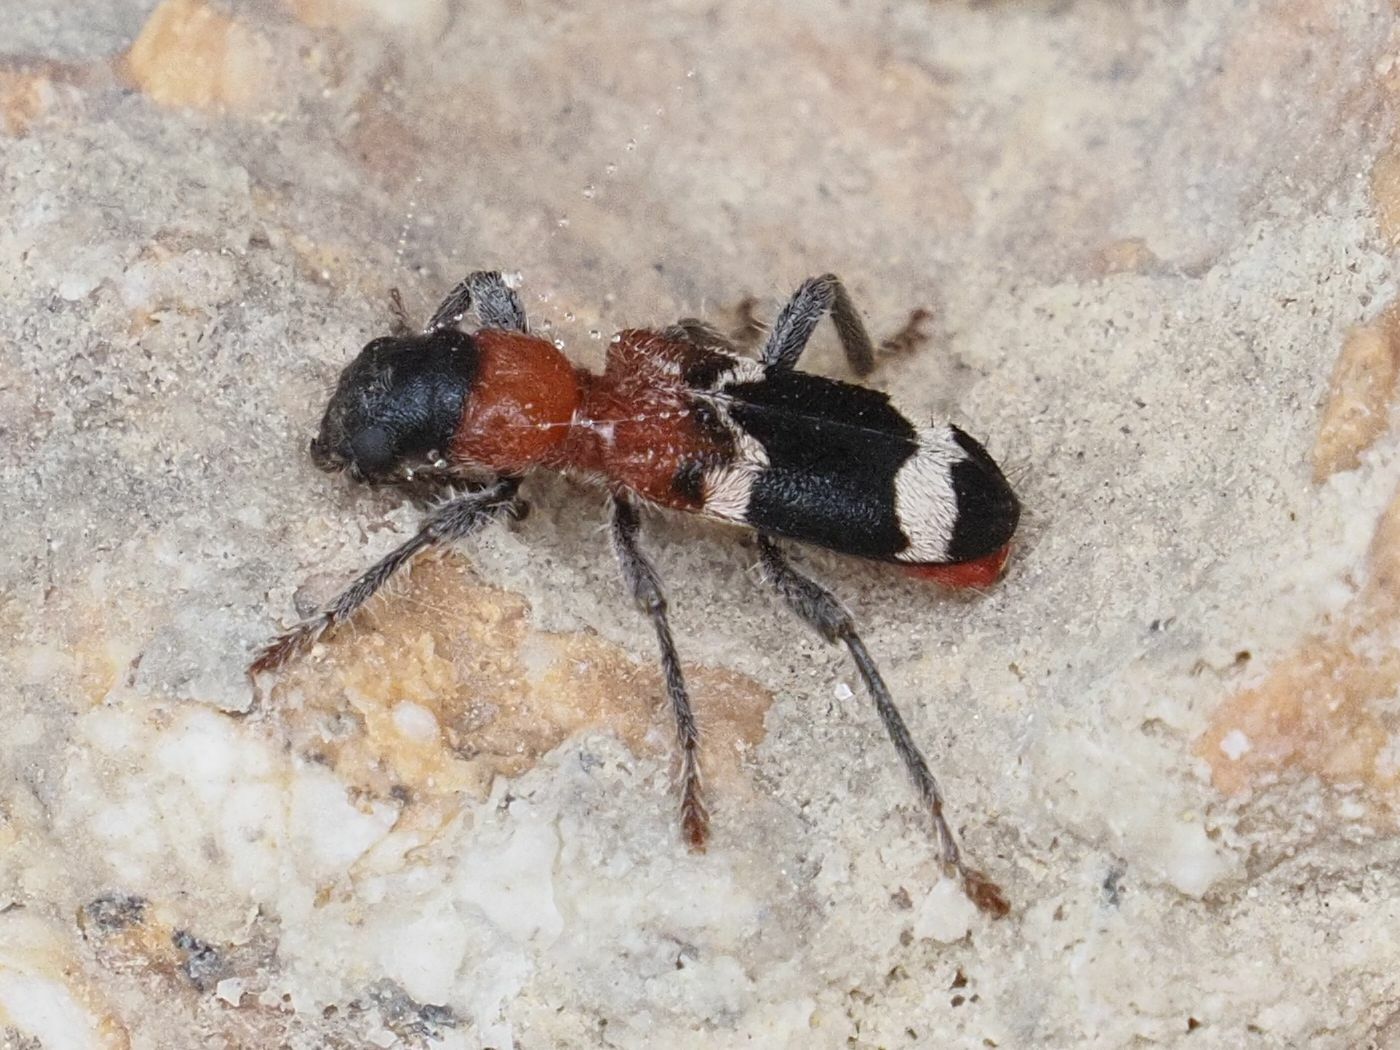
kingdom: Animalia
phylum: Arthropoda
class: Insecta
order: Coleoptera
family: Cleridae
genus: Thanasimus
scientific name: Thanasimus formicarius
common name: Ant beetle
